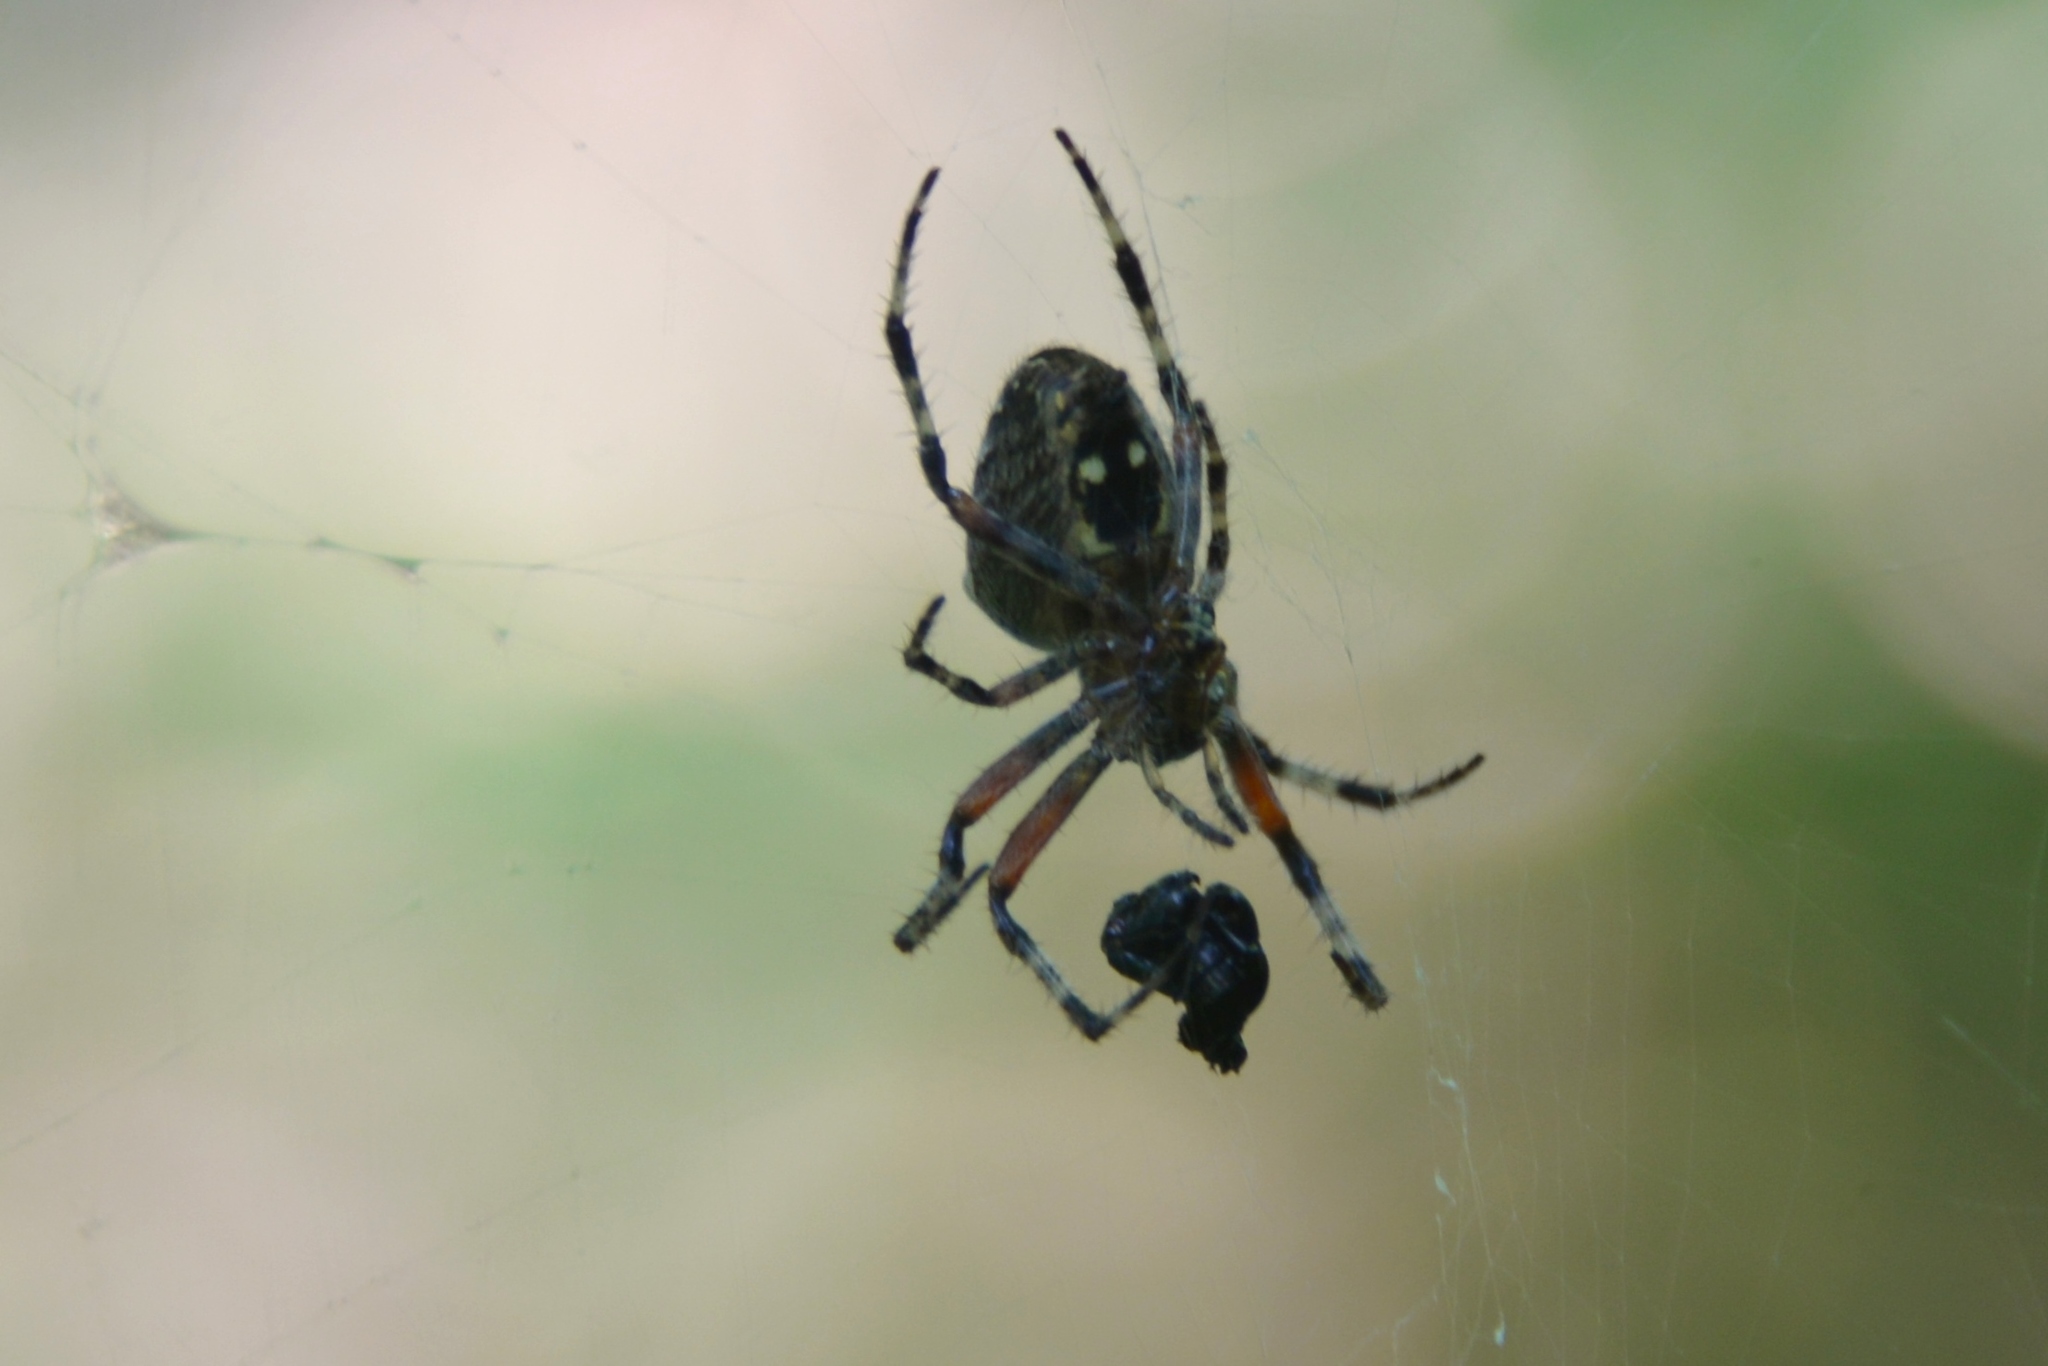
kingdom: Animalia
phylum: Arthropoda
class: Arachnida
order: Araneae
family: Araneidae
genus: Araneus
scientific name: Araneus diadematus
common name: Cross orbweaver
